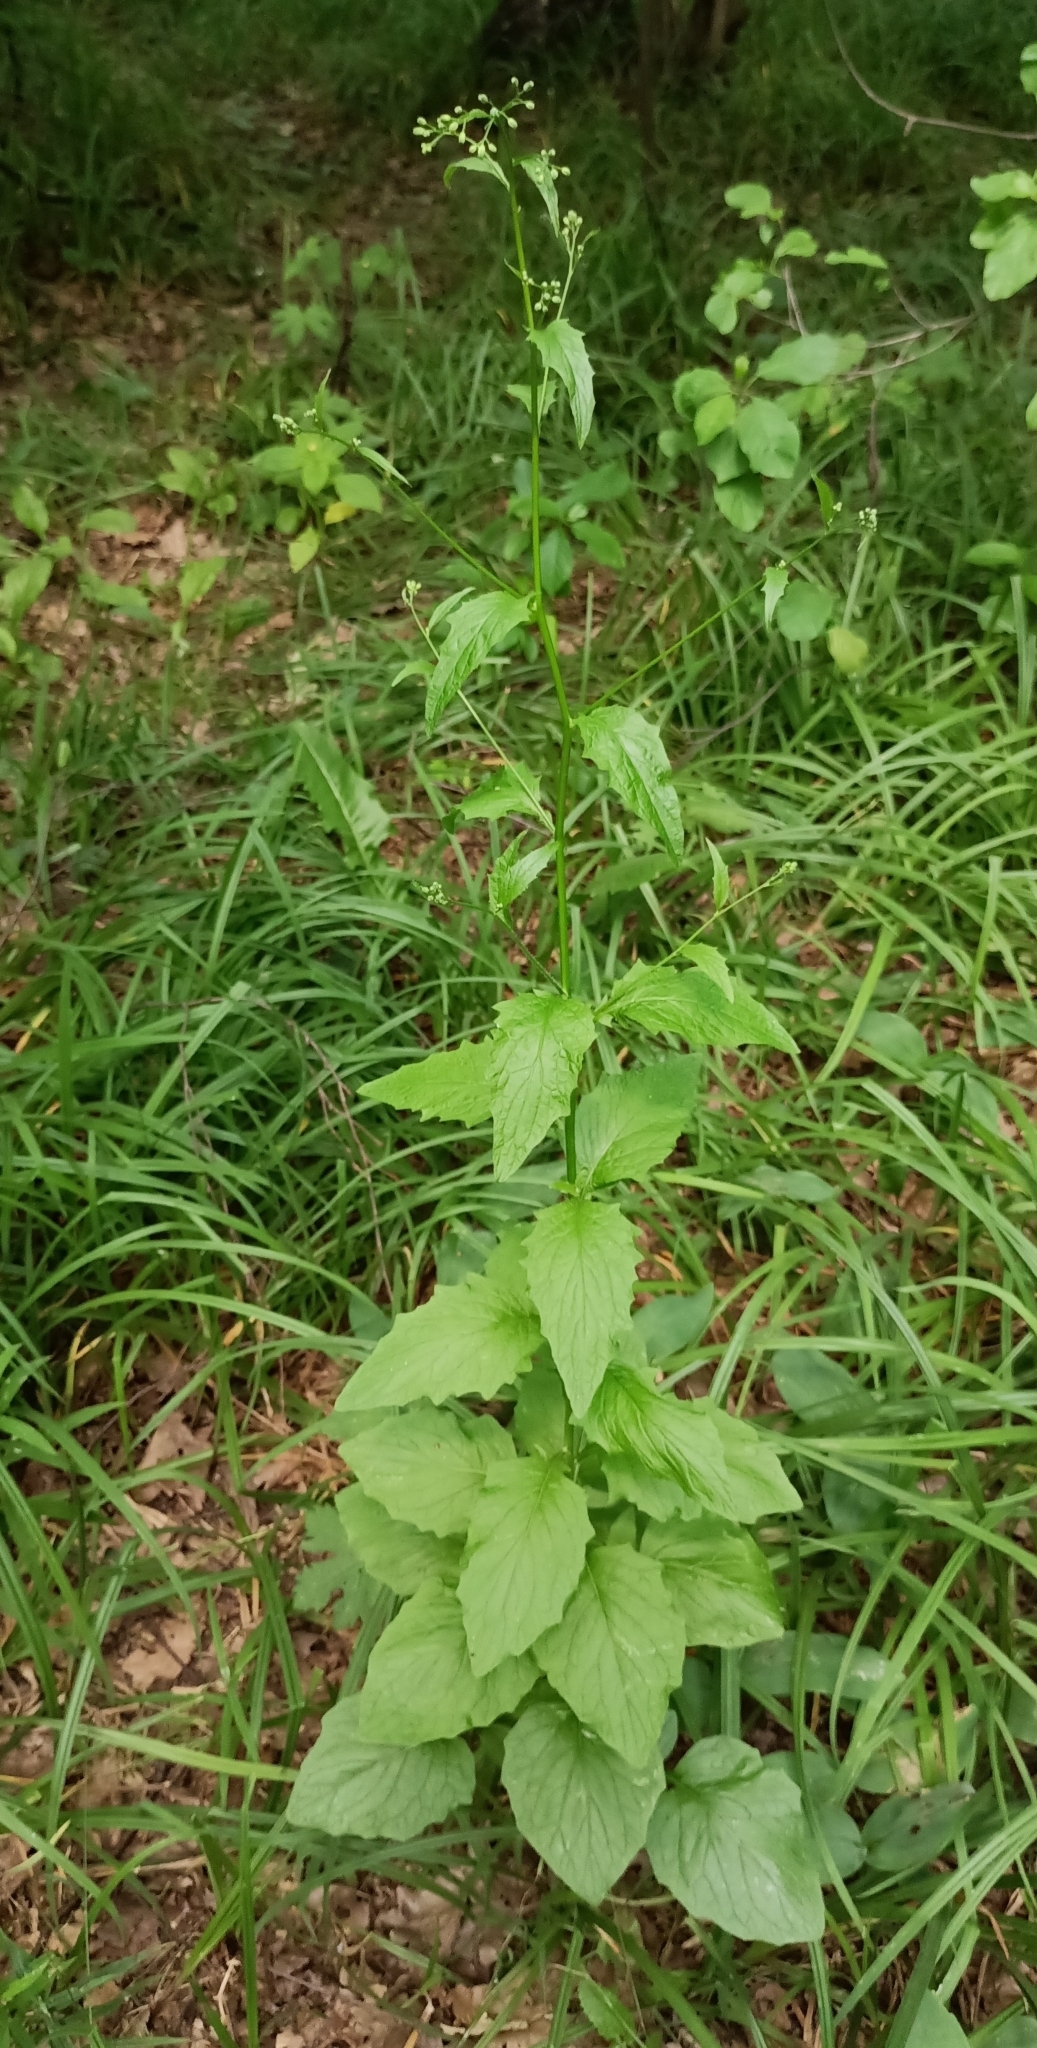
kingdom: Plantae
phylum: Tracheophyta
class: Magnoliopsida
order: Asterales
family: Asteraceae
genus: Lapsana
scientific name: Lapsana communis
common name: Nipplewort
